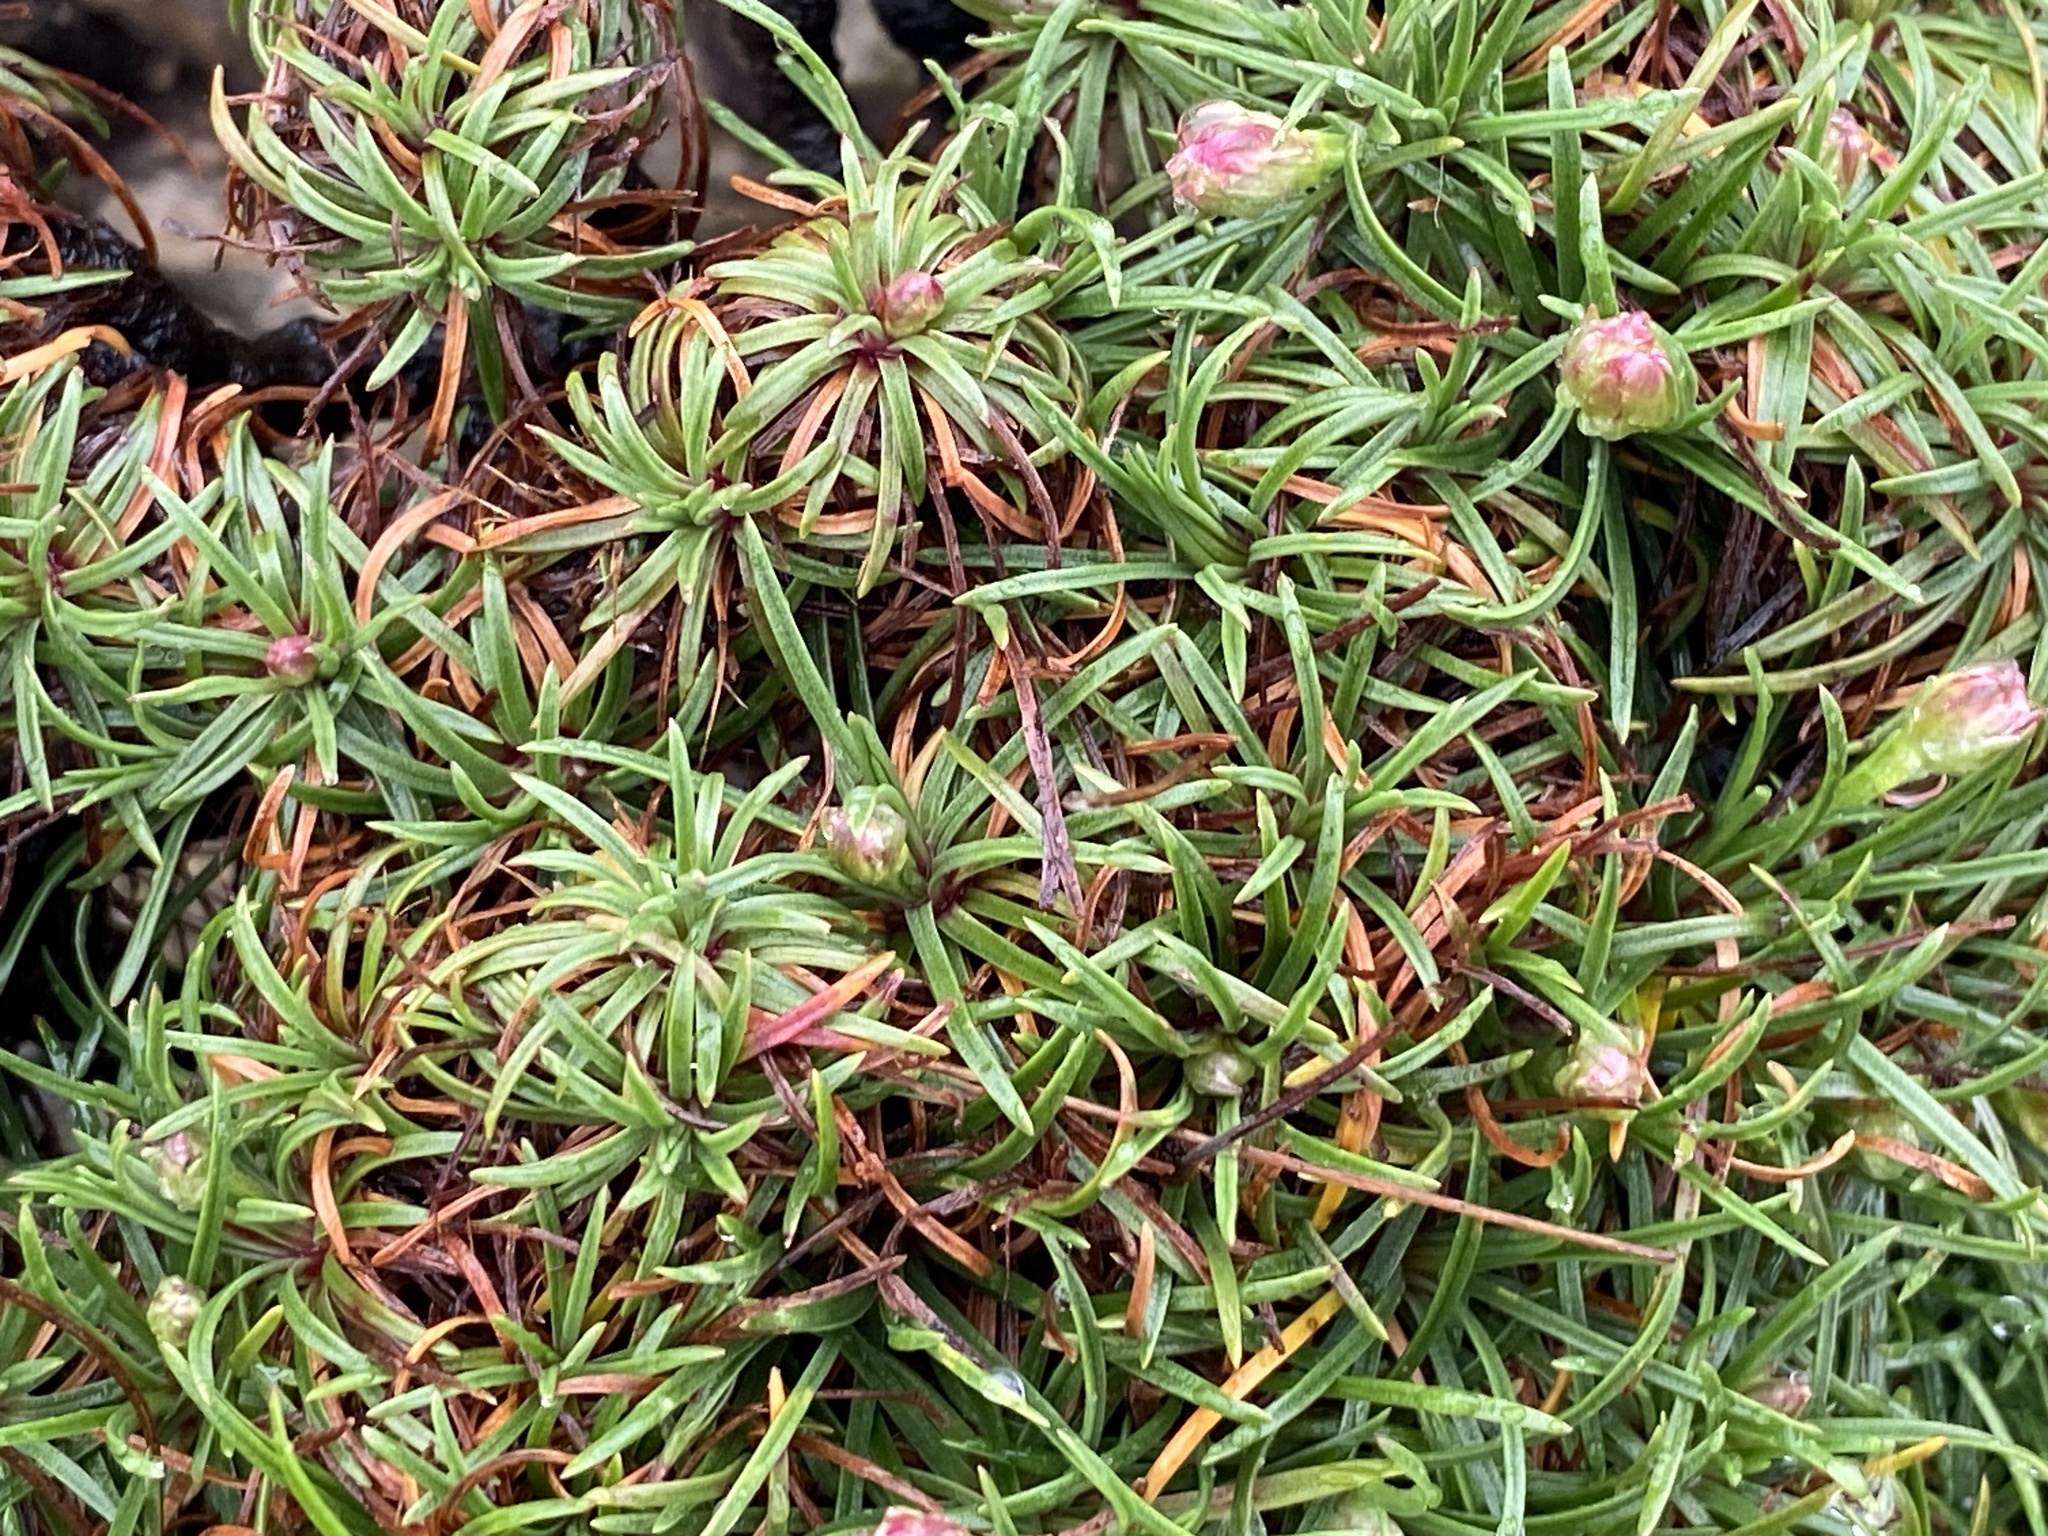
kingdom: Plantae
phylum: Tracheophyta
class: Magnoliopsida
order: Caryophyllales
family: Plumbaginaceae
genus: Armeria
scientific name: Armeria maritima
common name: Thrift
